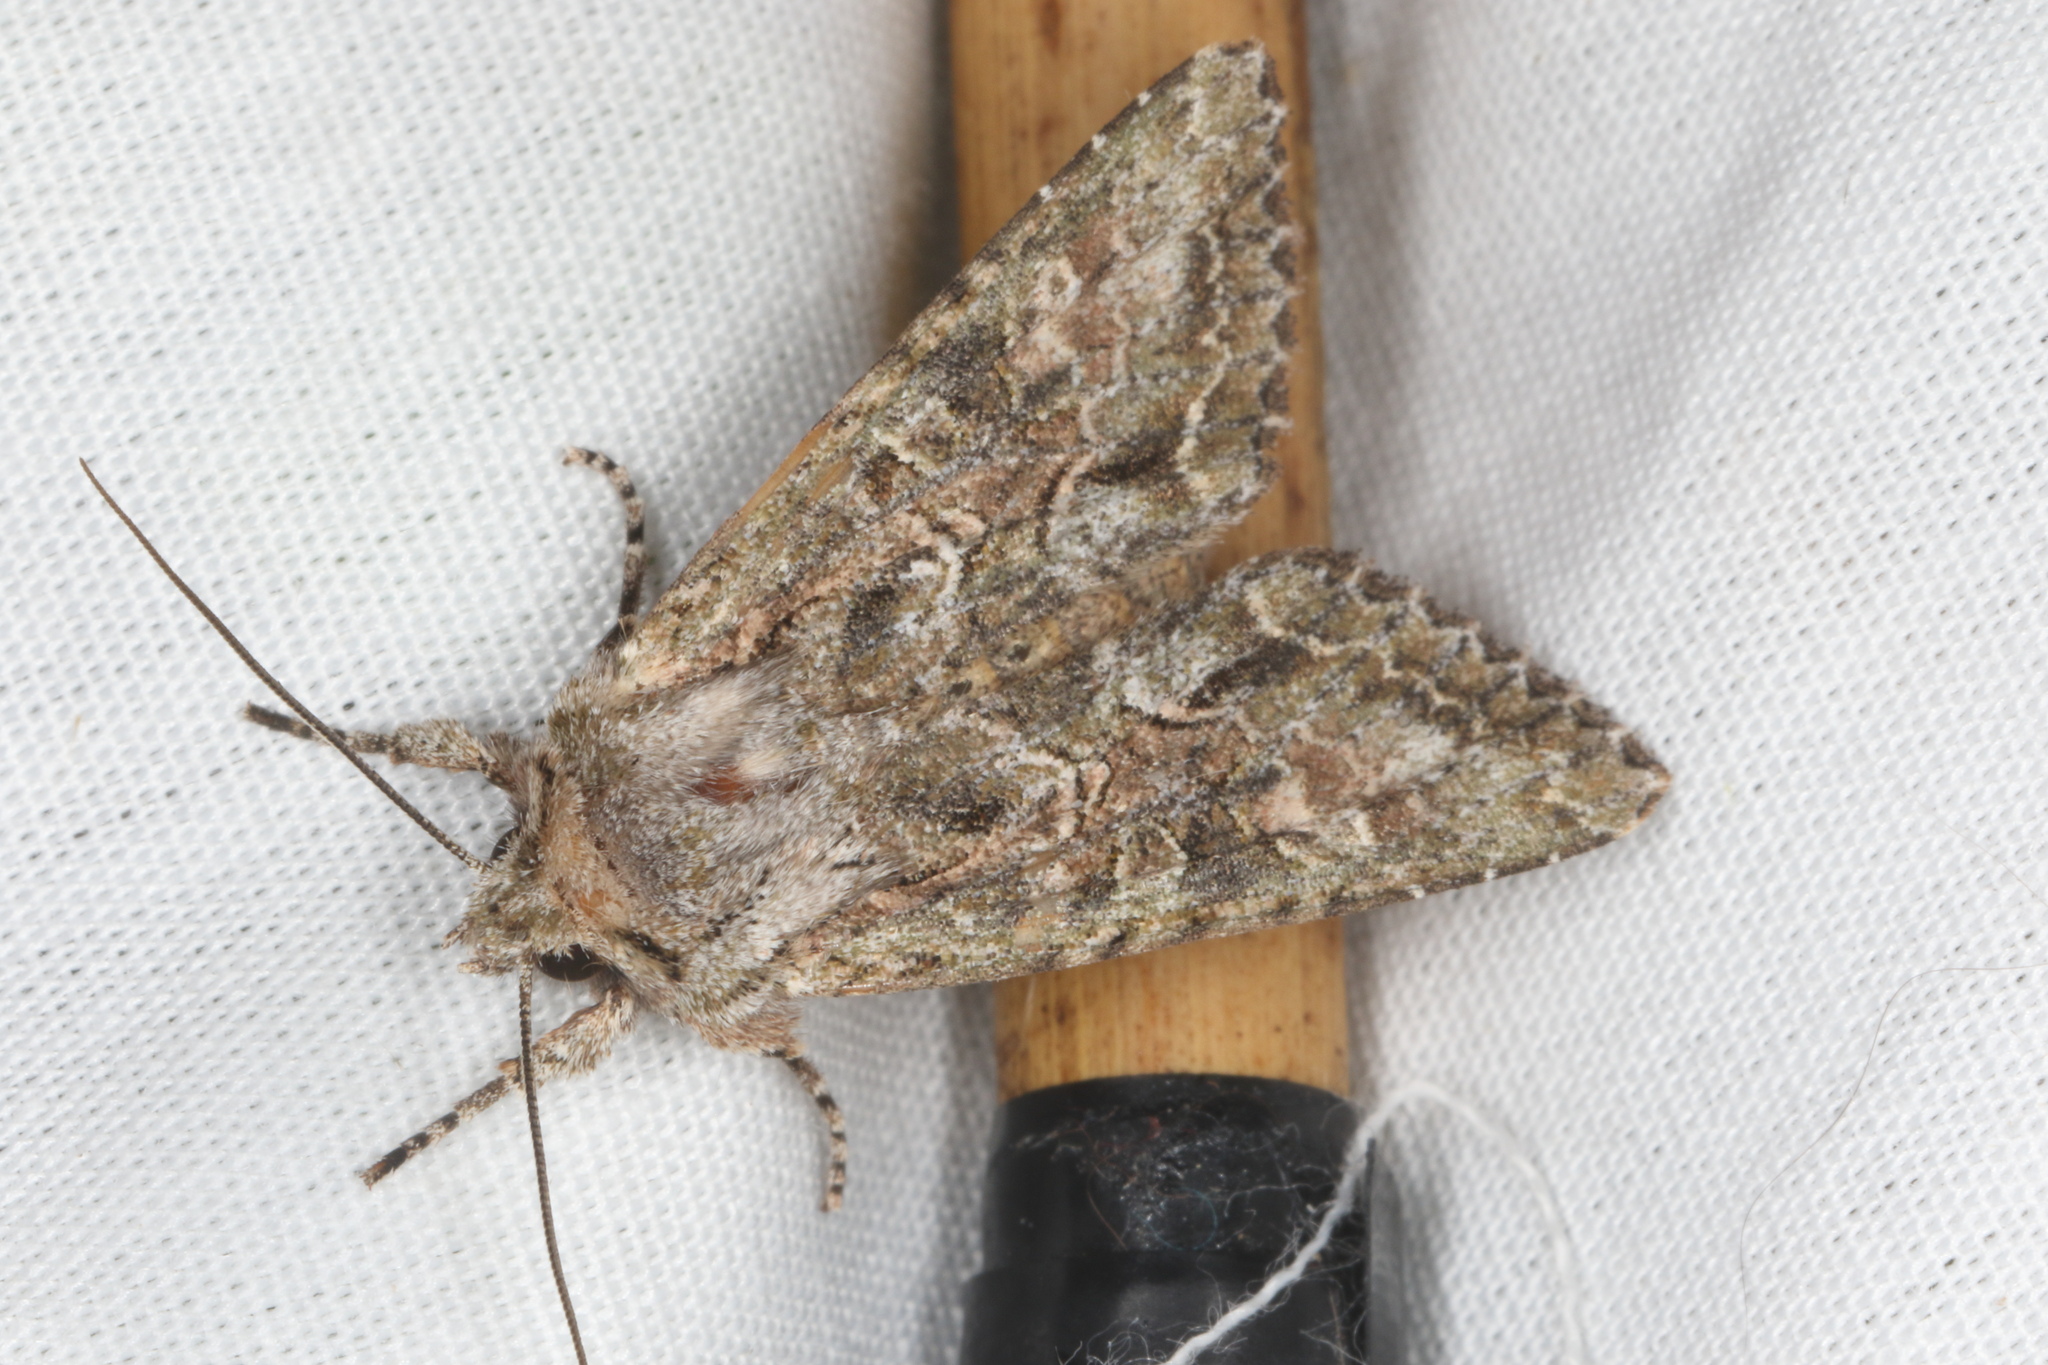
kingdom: Animalia
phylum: Arthropoda
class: Insecta
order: Lepidoptera
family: Noctuidae
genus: Ichneutica
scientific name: Ichneutica mutans
